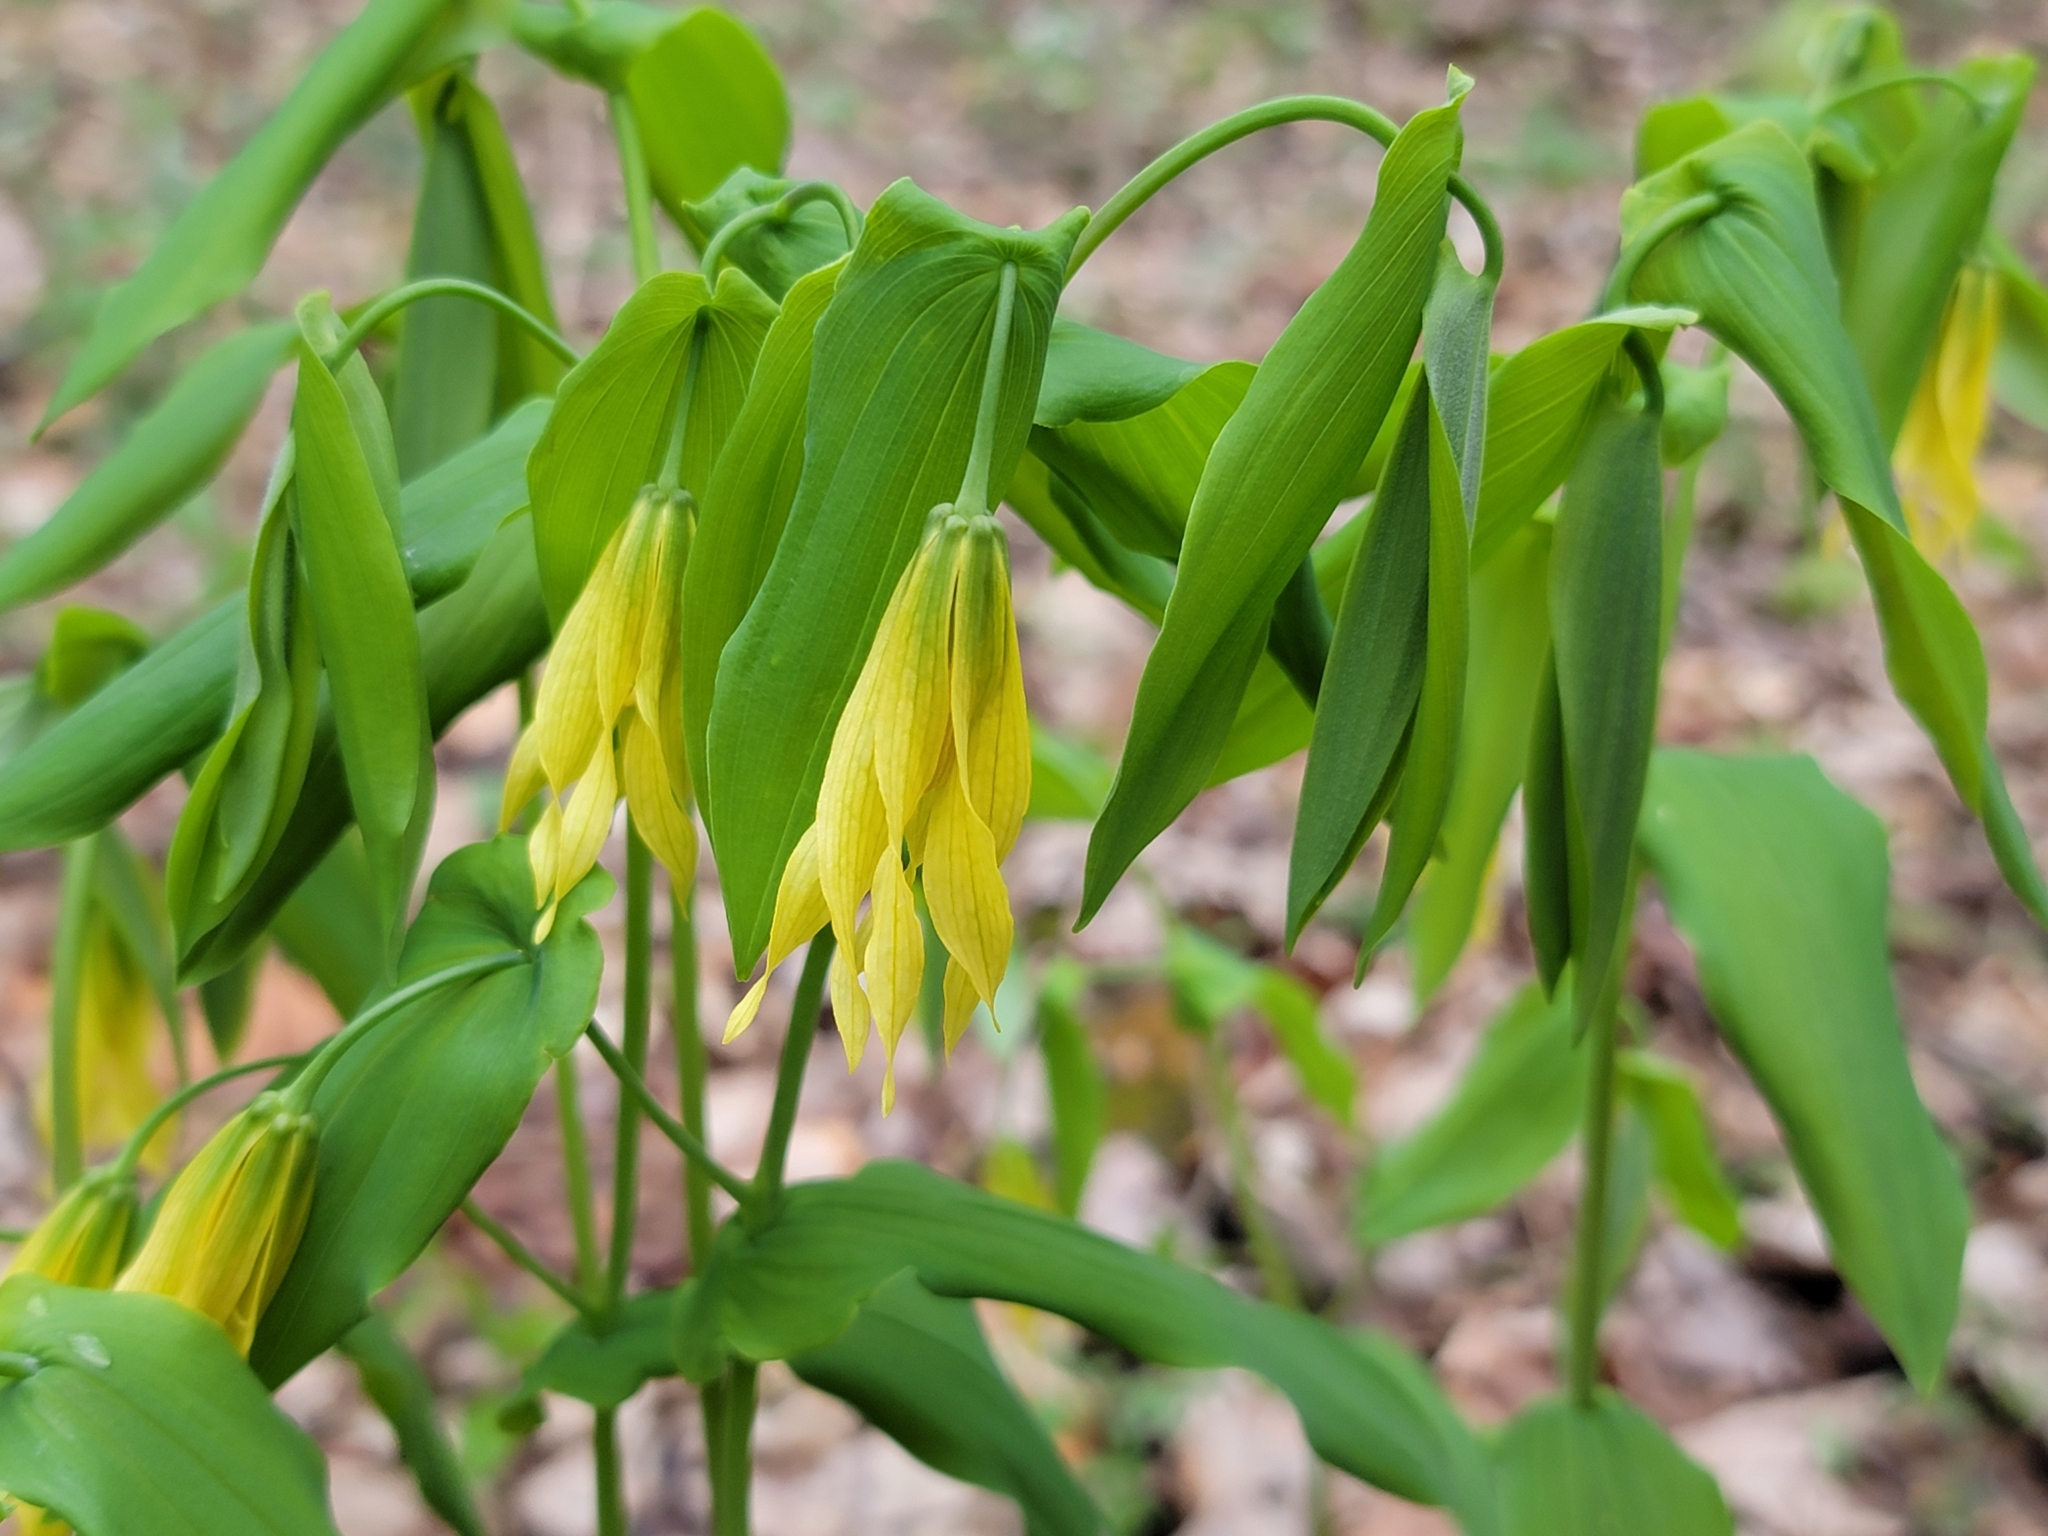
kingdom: Plantae
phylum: Tracheophyta
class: Liliopsida
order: Liliales
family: Colchicaceae
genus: Uvularia
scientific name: Uvularia grandiflora
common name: Bellwort
